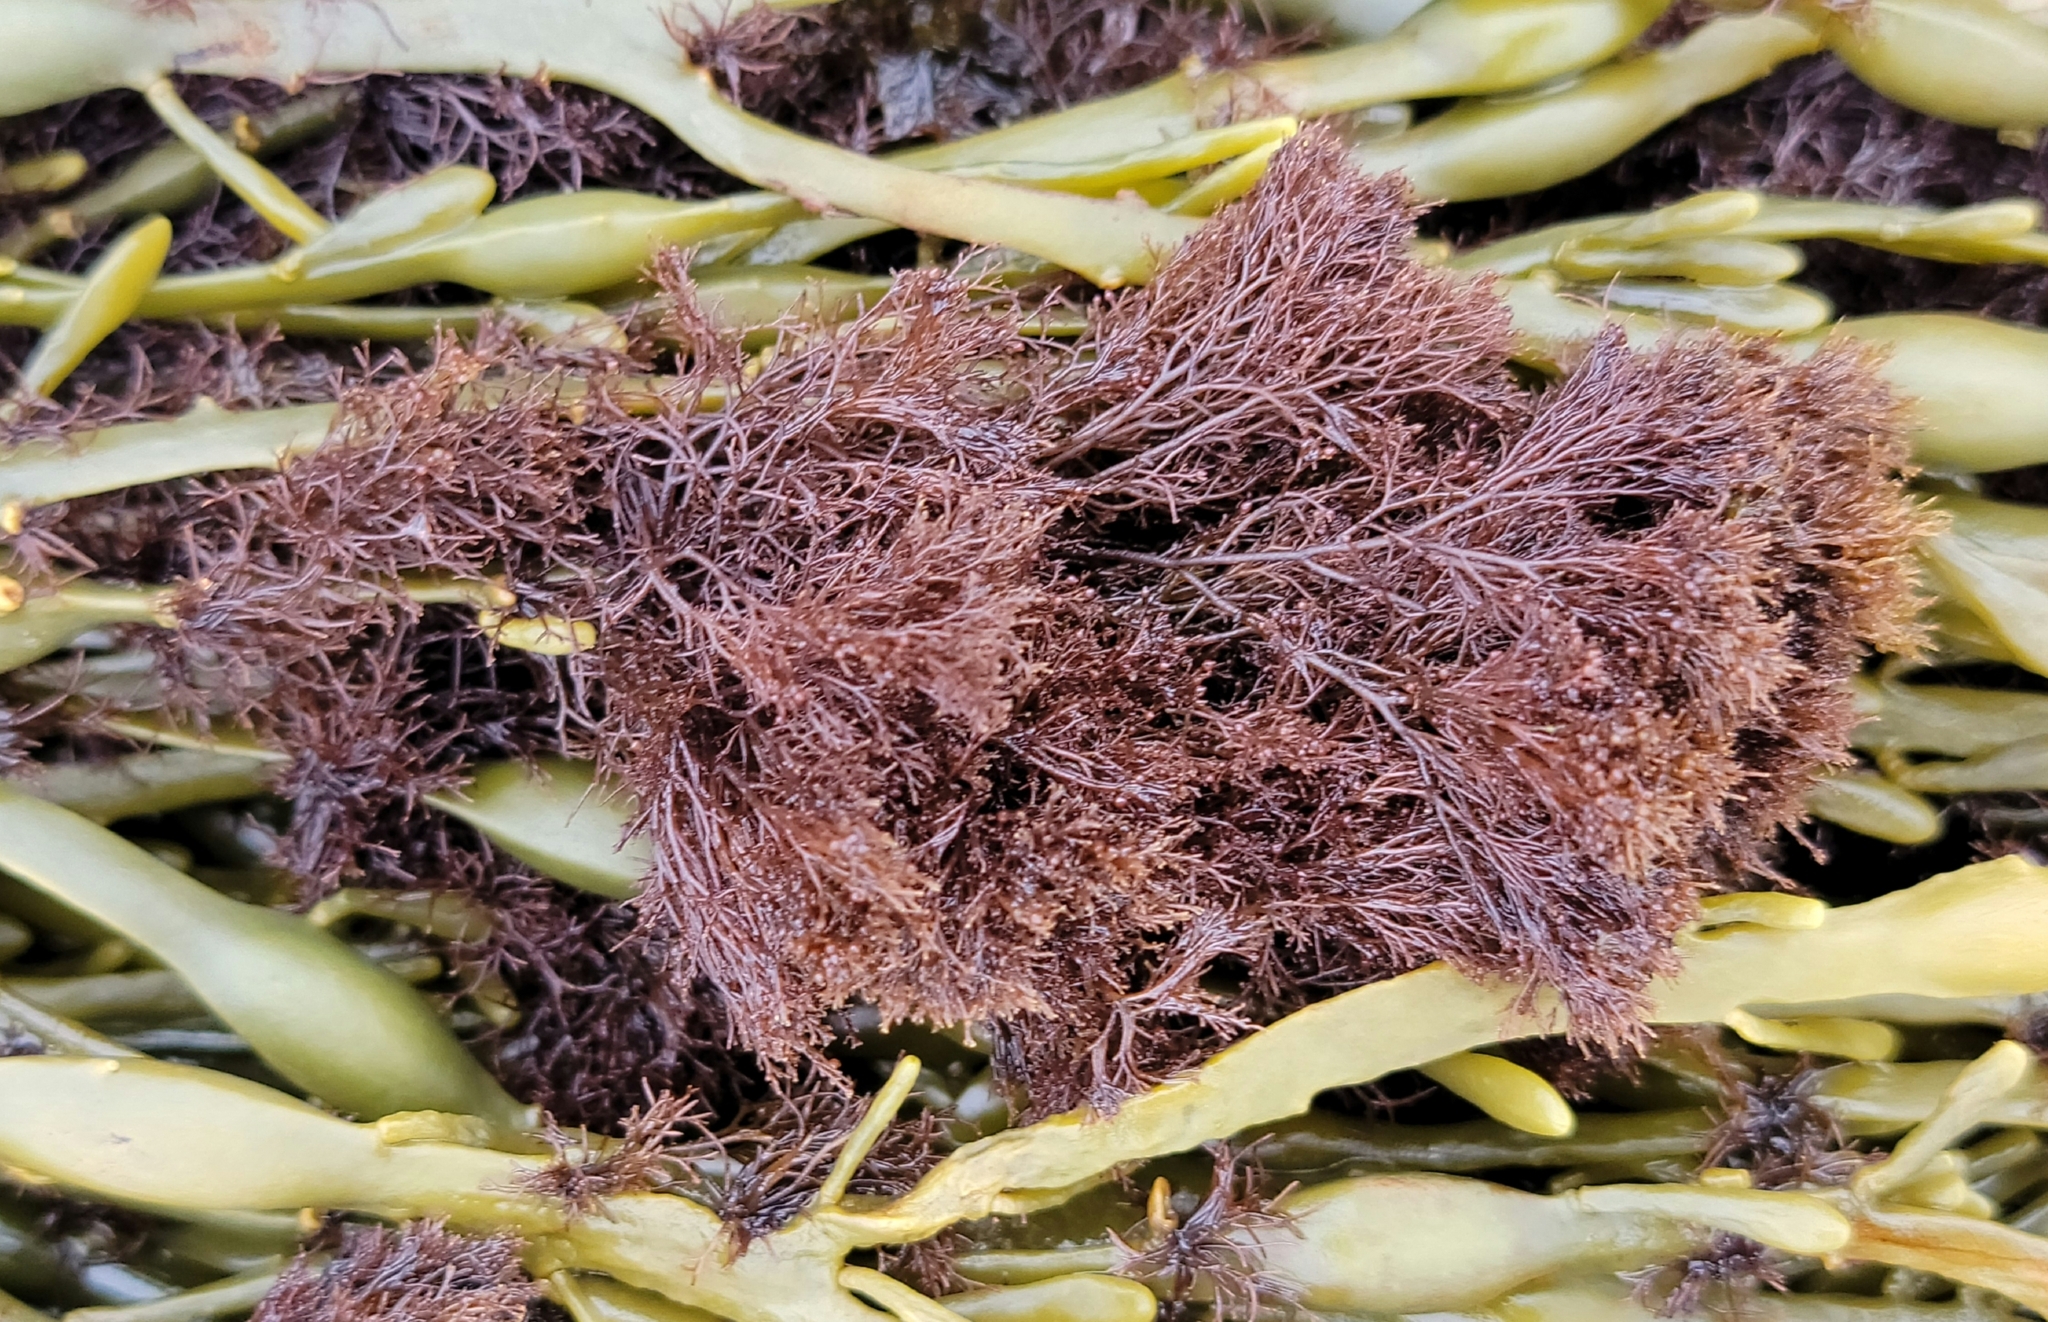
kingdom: Plantae
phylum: Rhodophyta
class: Florideophyceae
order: Ceramiales
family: Rhodomelaceae
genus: Vertebrata
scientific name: Vertebrata lanosa
